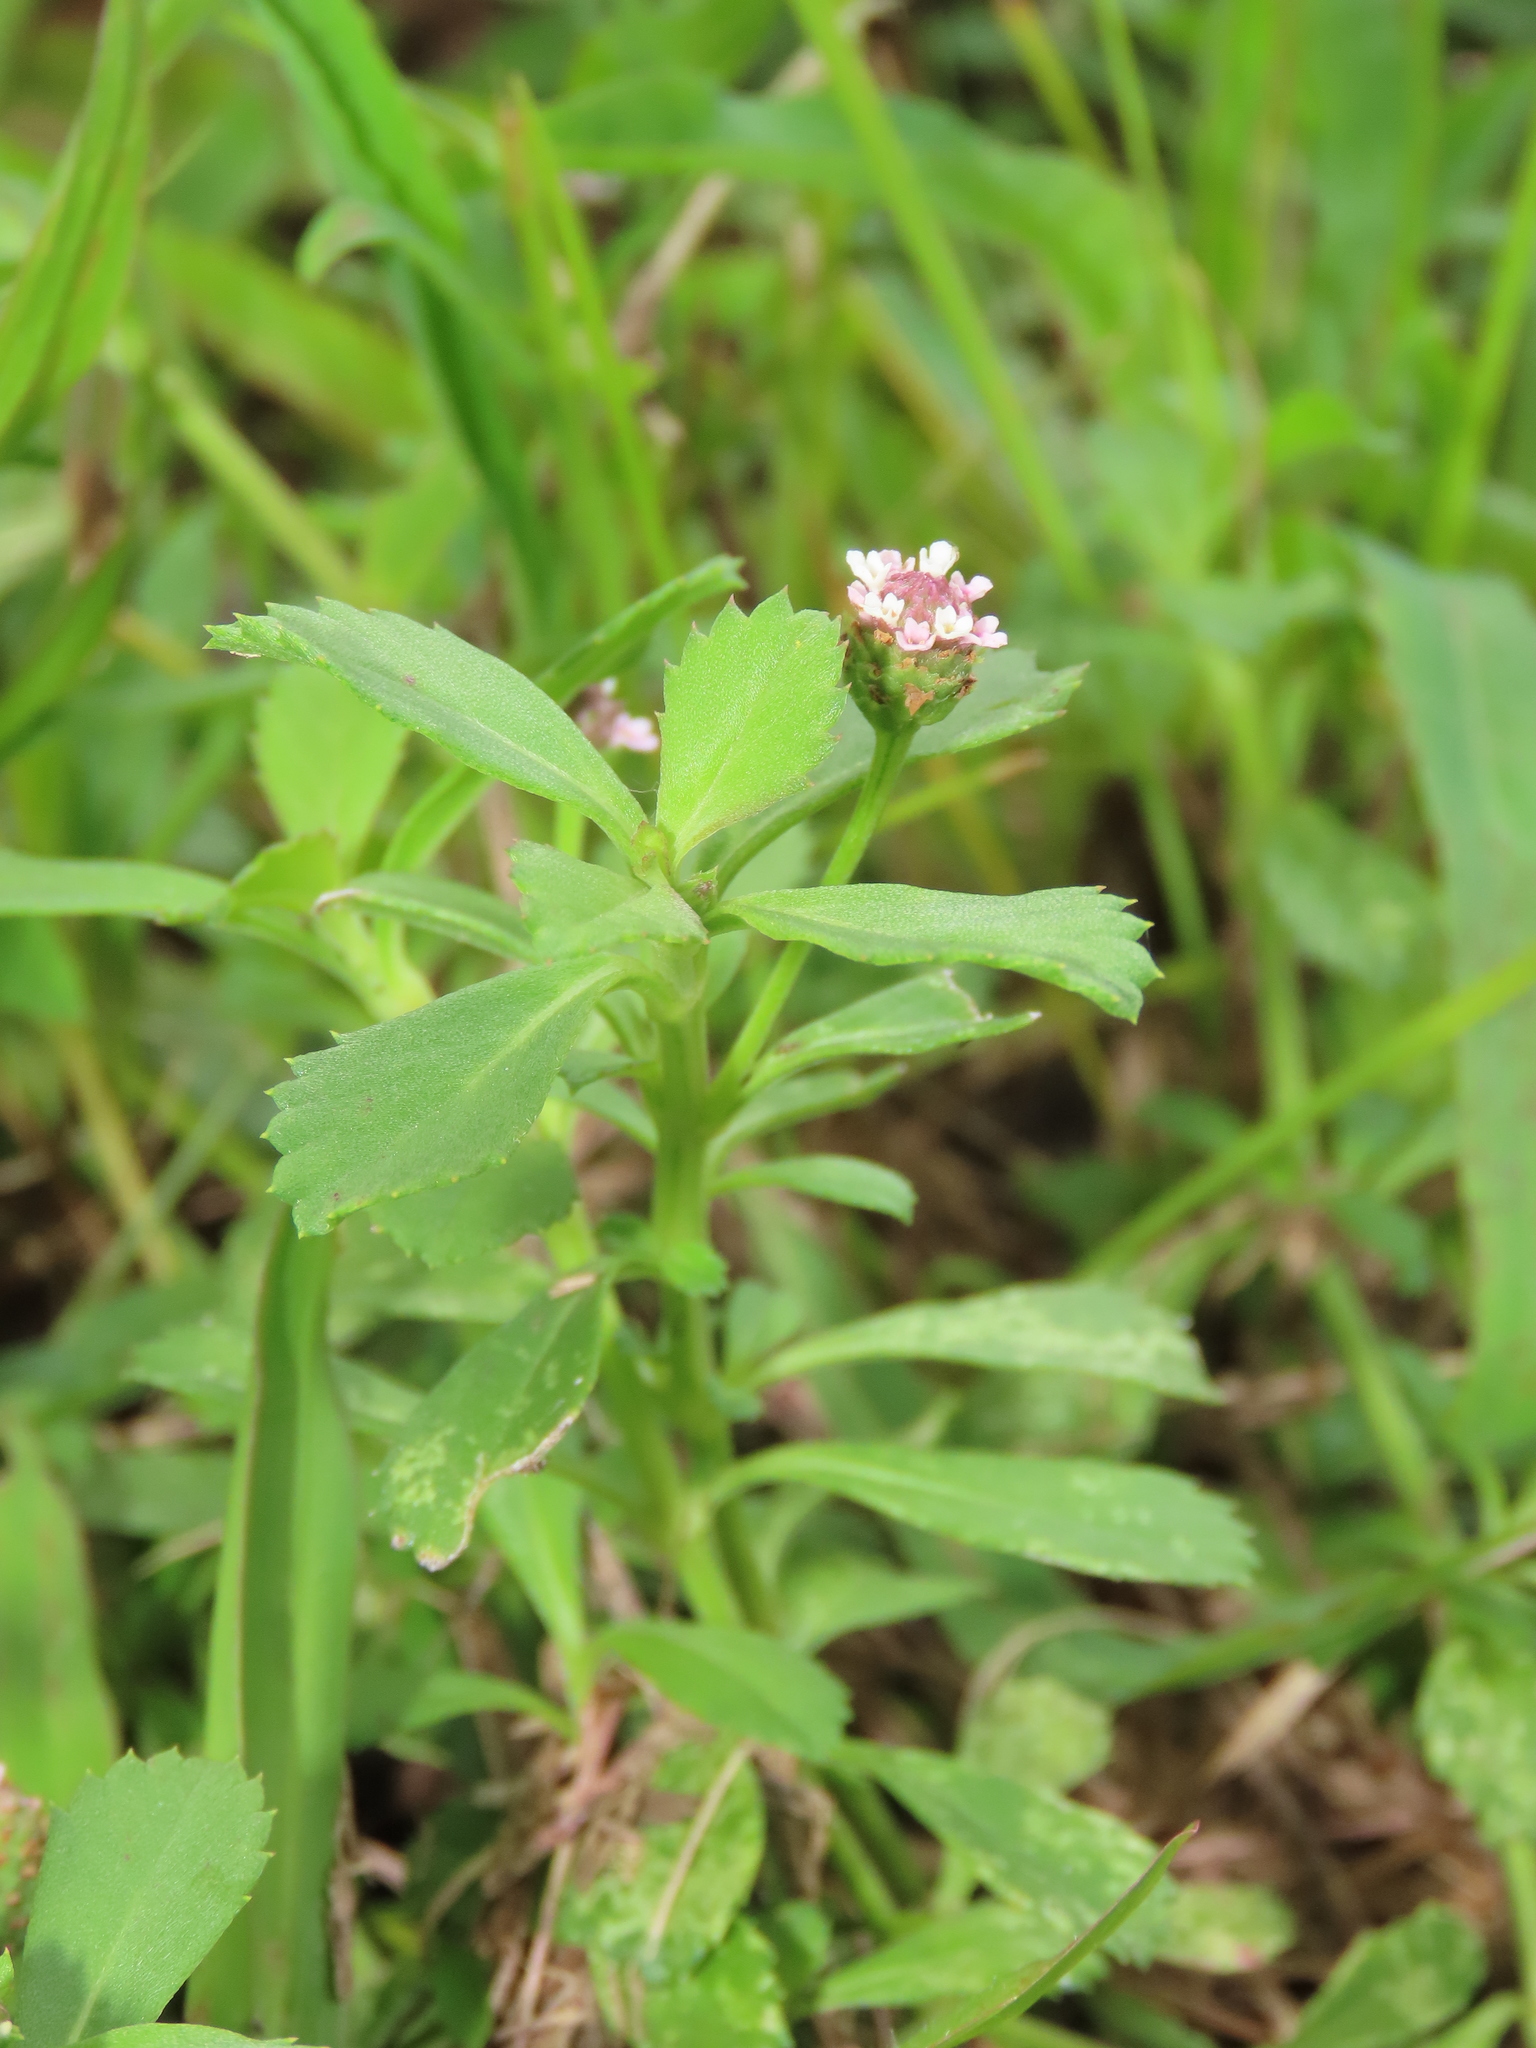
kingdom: Plantae
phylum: Tracheophyta
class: Magnoliopsida
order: Lamiales
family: Verbenaceae
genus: Phyla
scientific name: Phyla nodiflora
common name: Frogfruit
